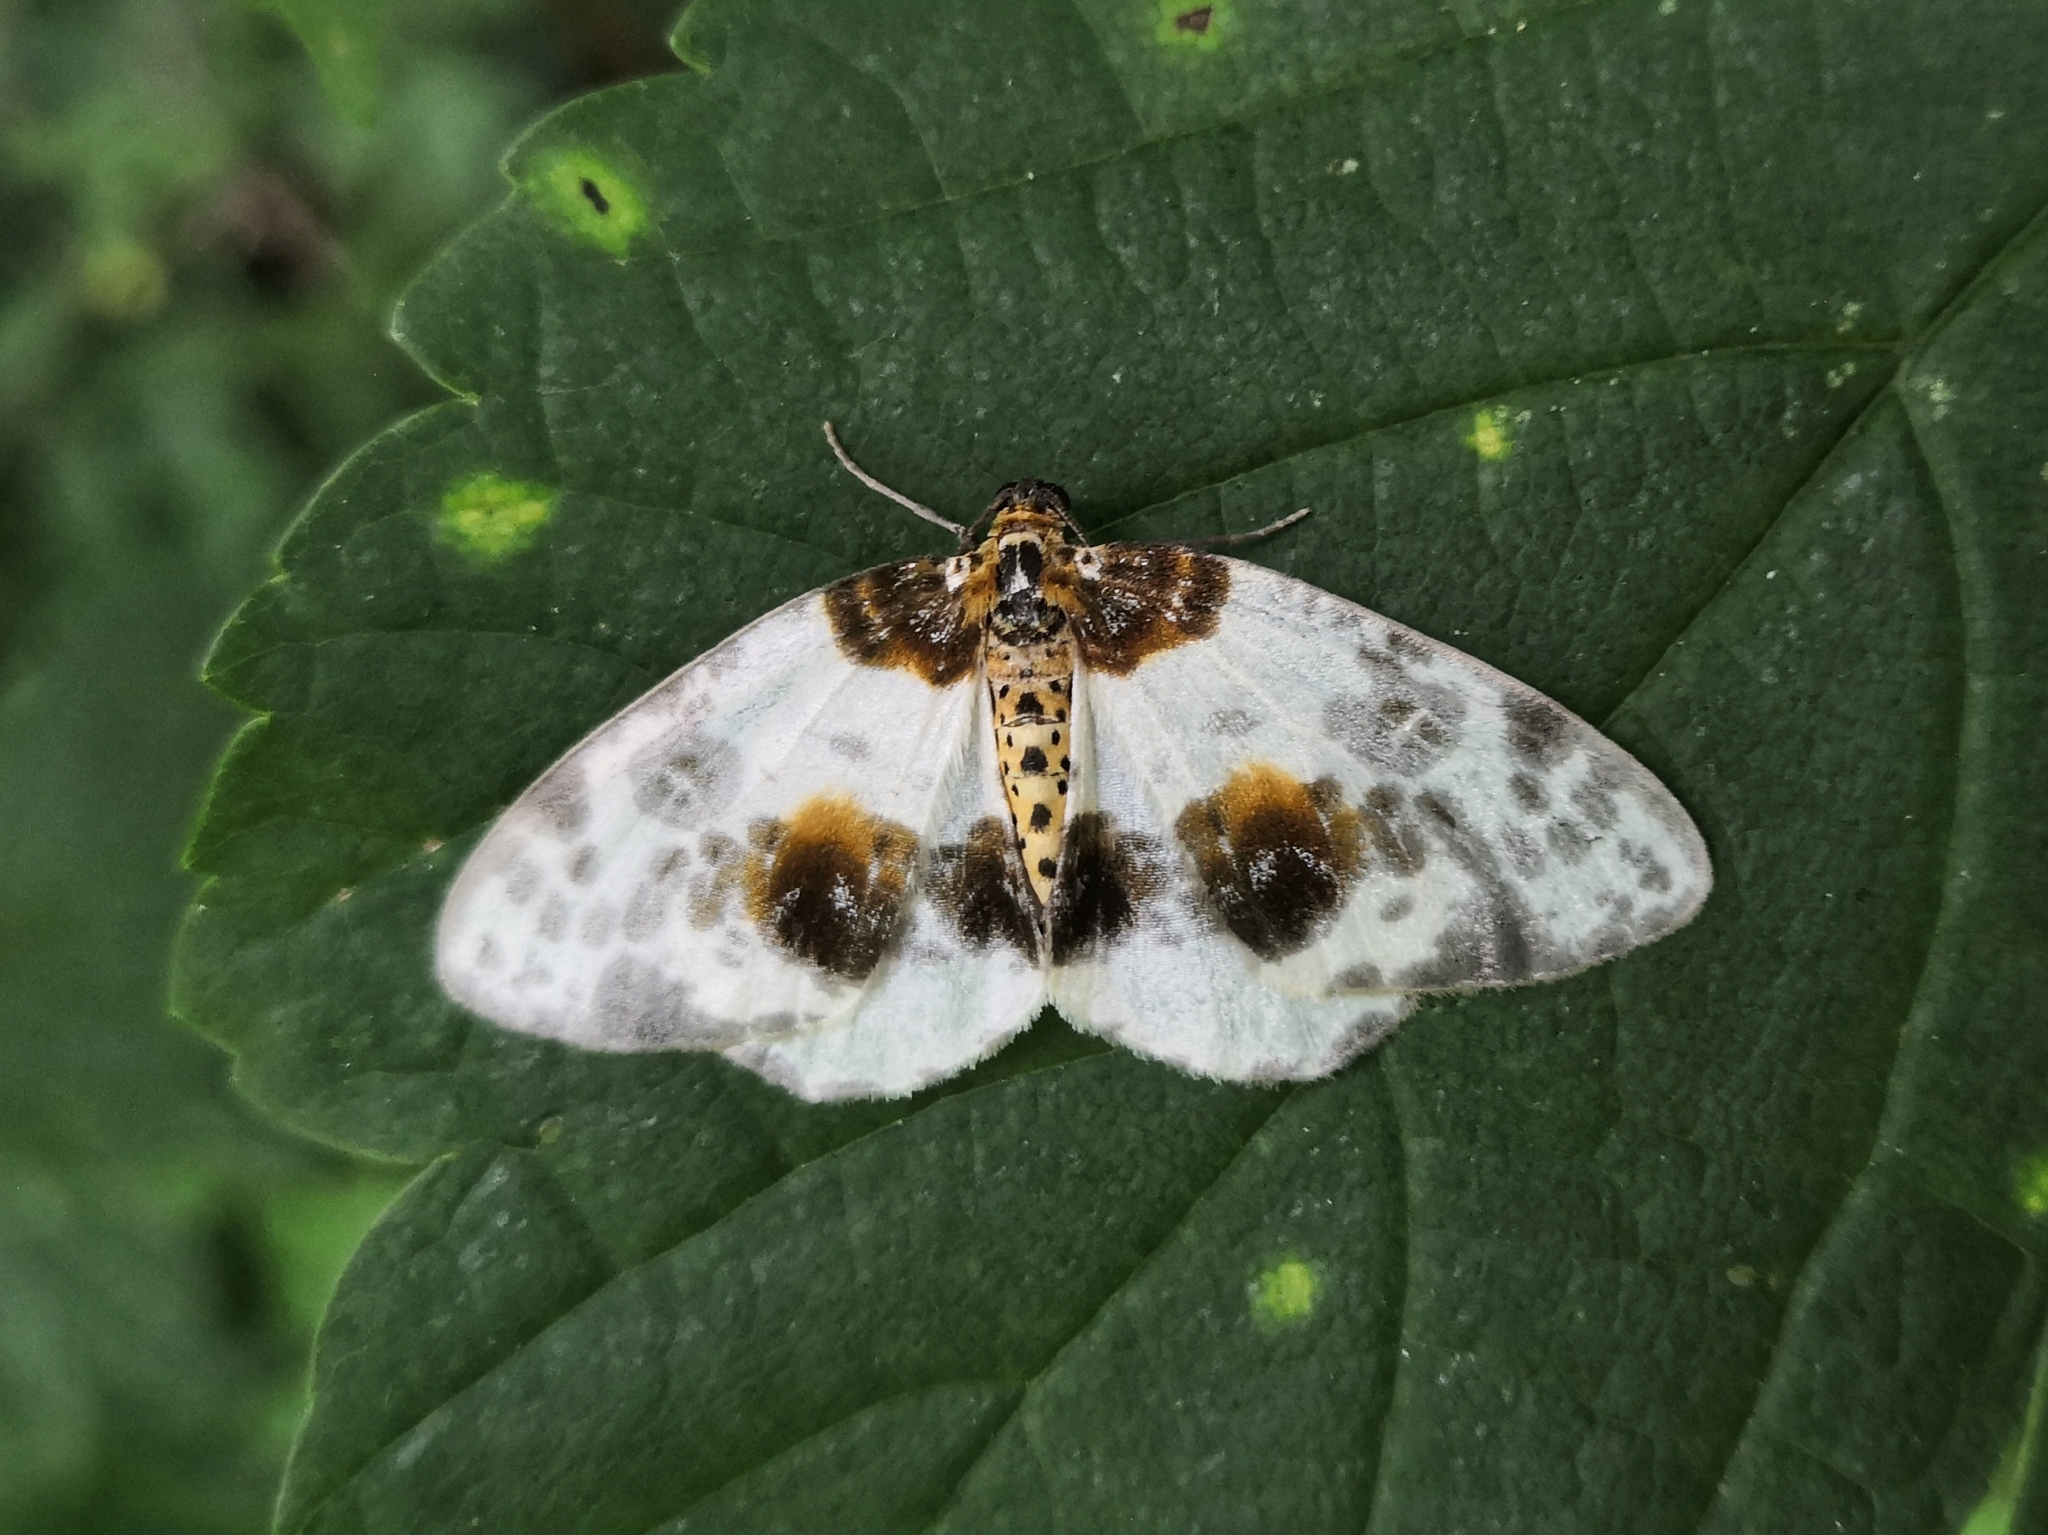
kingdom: Animalia
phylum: Arthropoda
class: Insecta
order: Lepidoptera
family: Geometridae
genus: Abraxas
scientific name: Abraxas sylvata
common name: Clouded magpie
